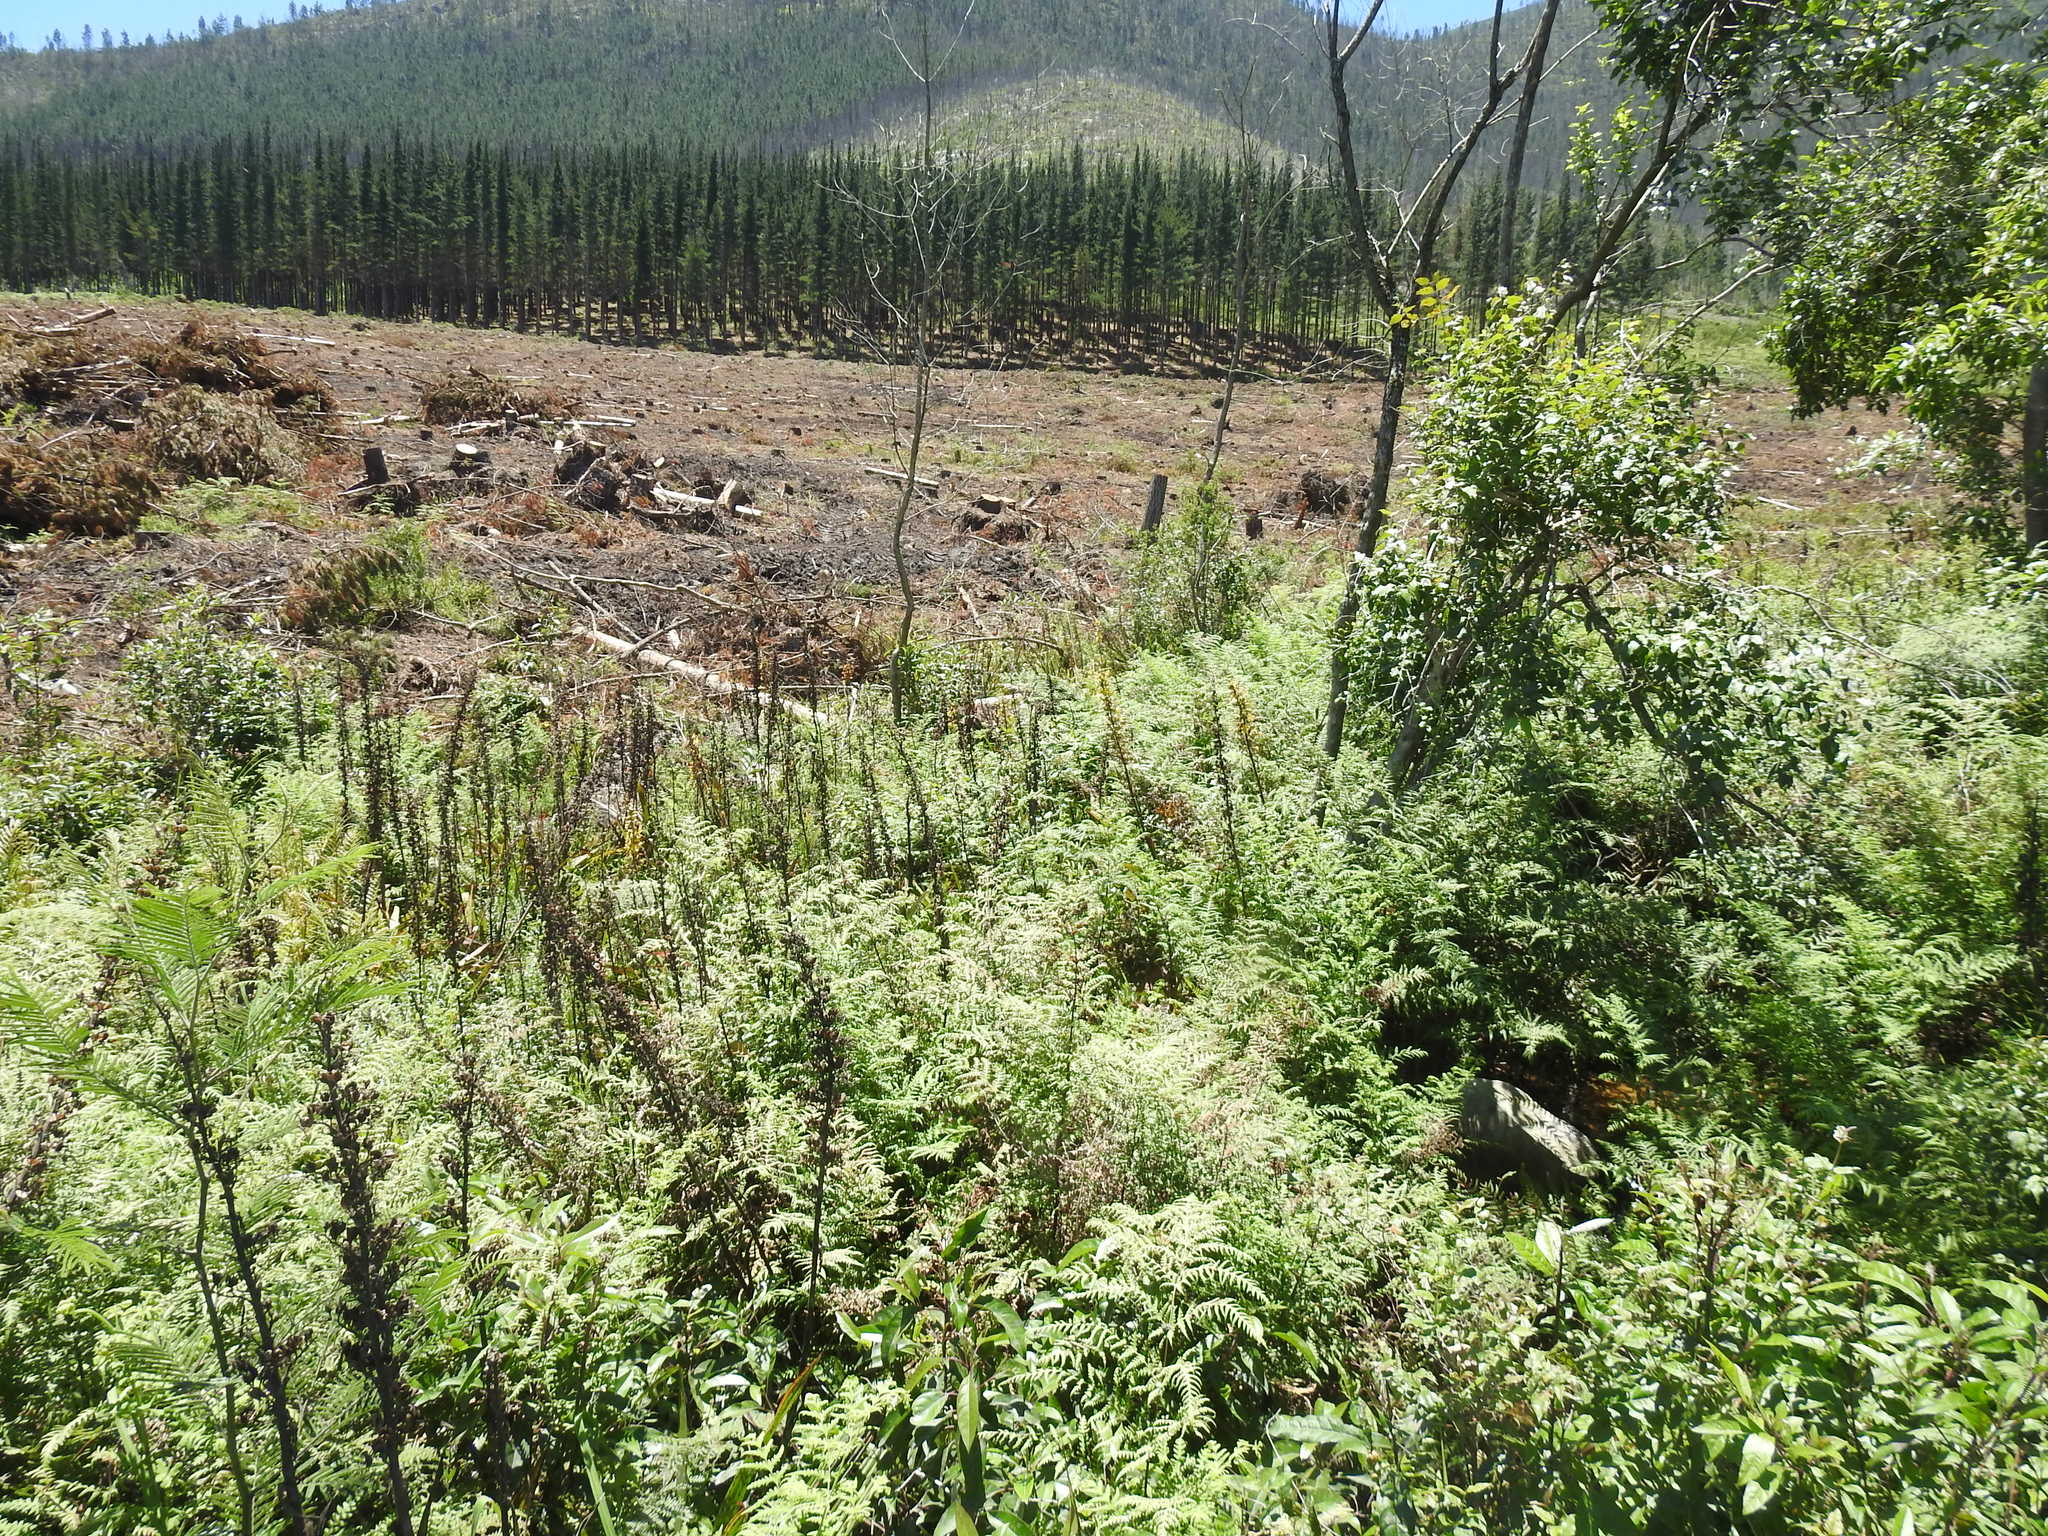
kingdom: Plantae
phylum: Tracheophyta
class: Liliopsida
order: Commelinales
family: Haemodoraceae
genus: Wachendorfia
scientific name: Wachendorfia thyrsiflora
